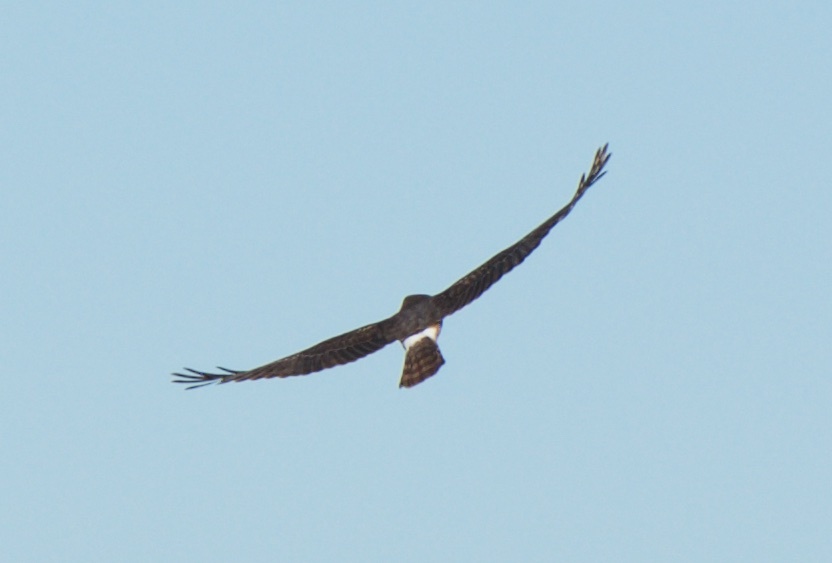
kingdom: Animalia
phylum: Chordata
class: Aves
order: Accipitriformes
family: Accipitridae
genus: Circus
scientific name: Circus cyaneus
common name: Hen harrier
